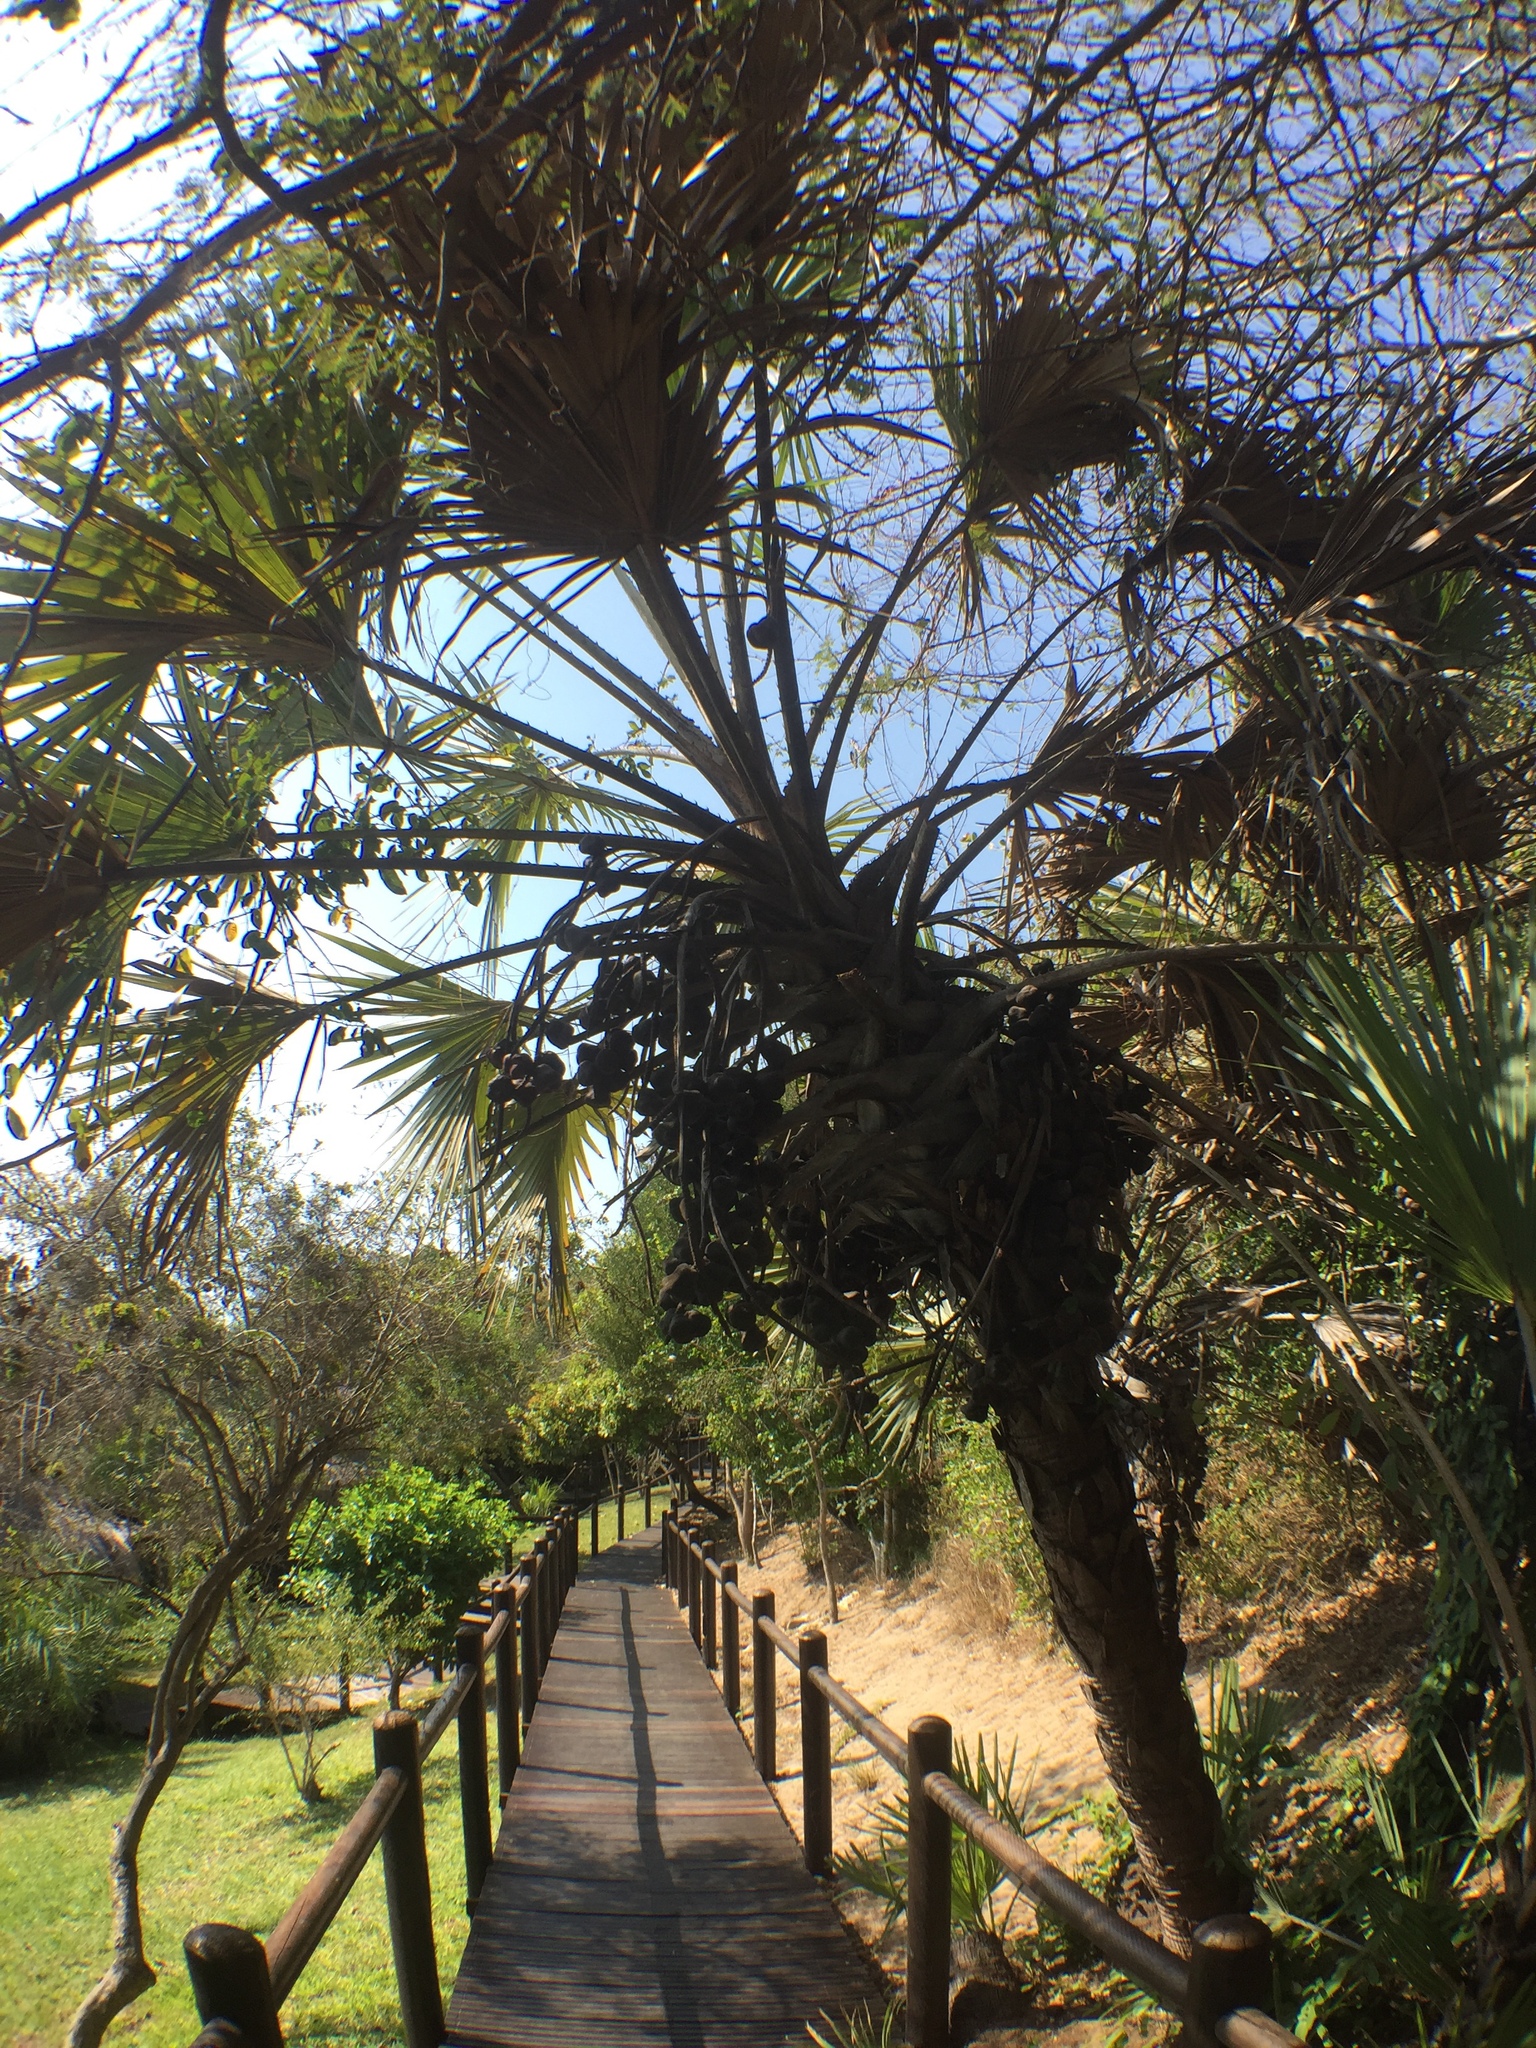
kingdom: Plantae
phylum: Tracheophyta
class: Liliopsida
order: Arecales
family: Arecaceae
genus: Hyphaene
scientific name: Hyphaene coriacea
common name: Ilala palm
